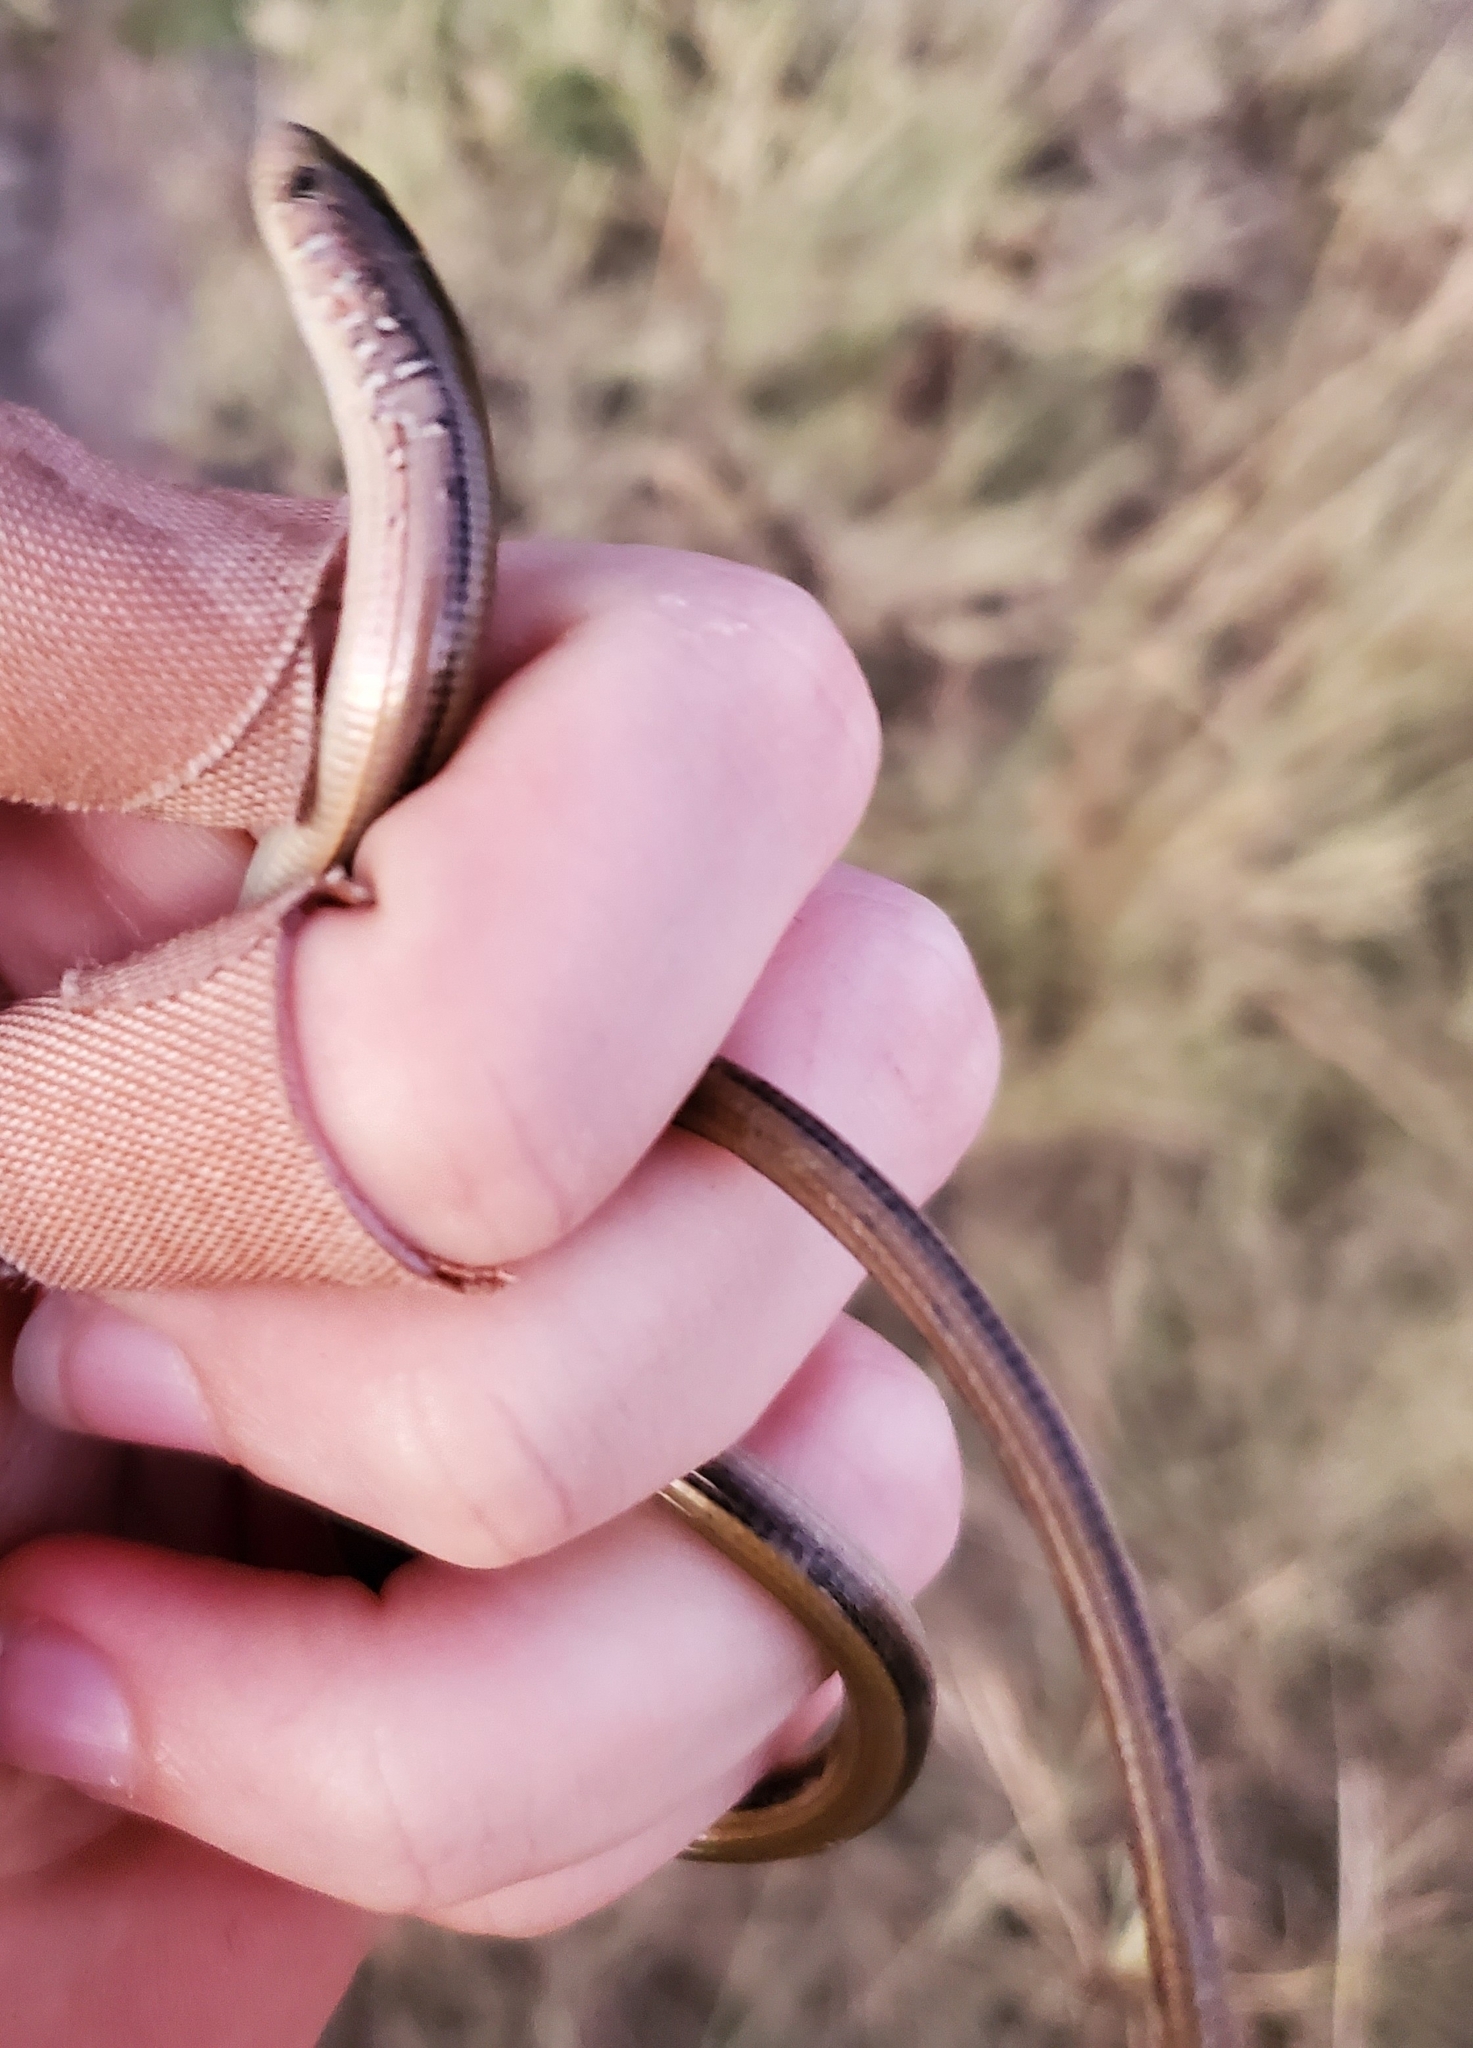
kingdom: Animalia
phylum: Chordata
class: Squamata
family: Anguidae
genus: Ophisaurus
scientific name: Ophisaurus ventralis
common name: Eastern glass lizard
